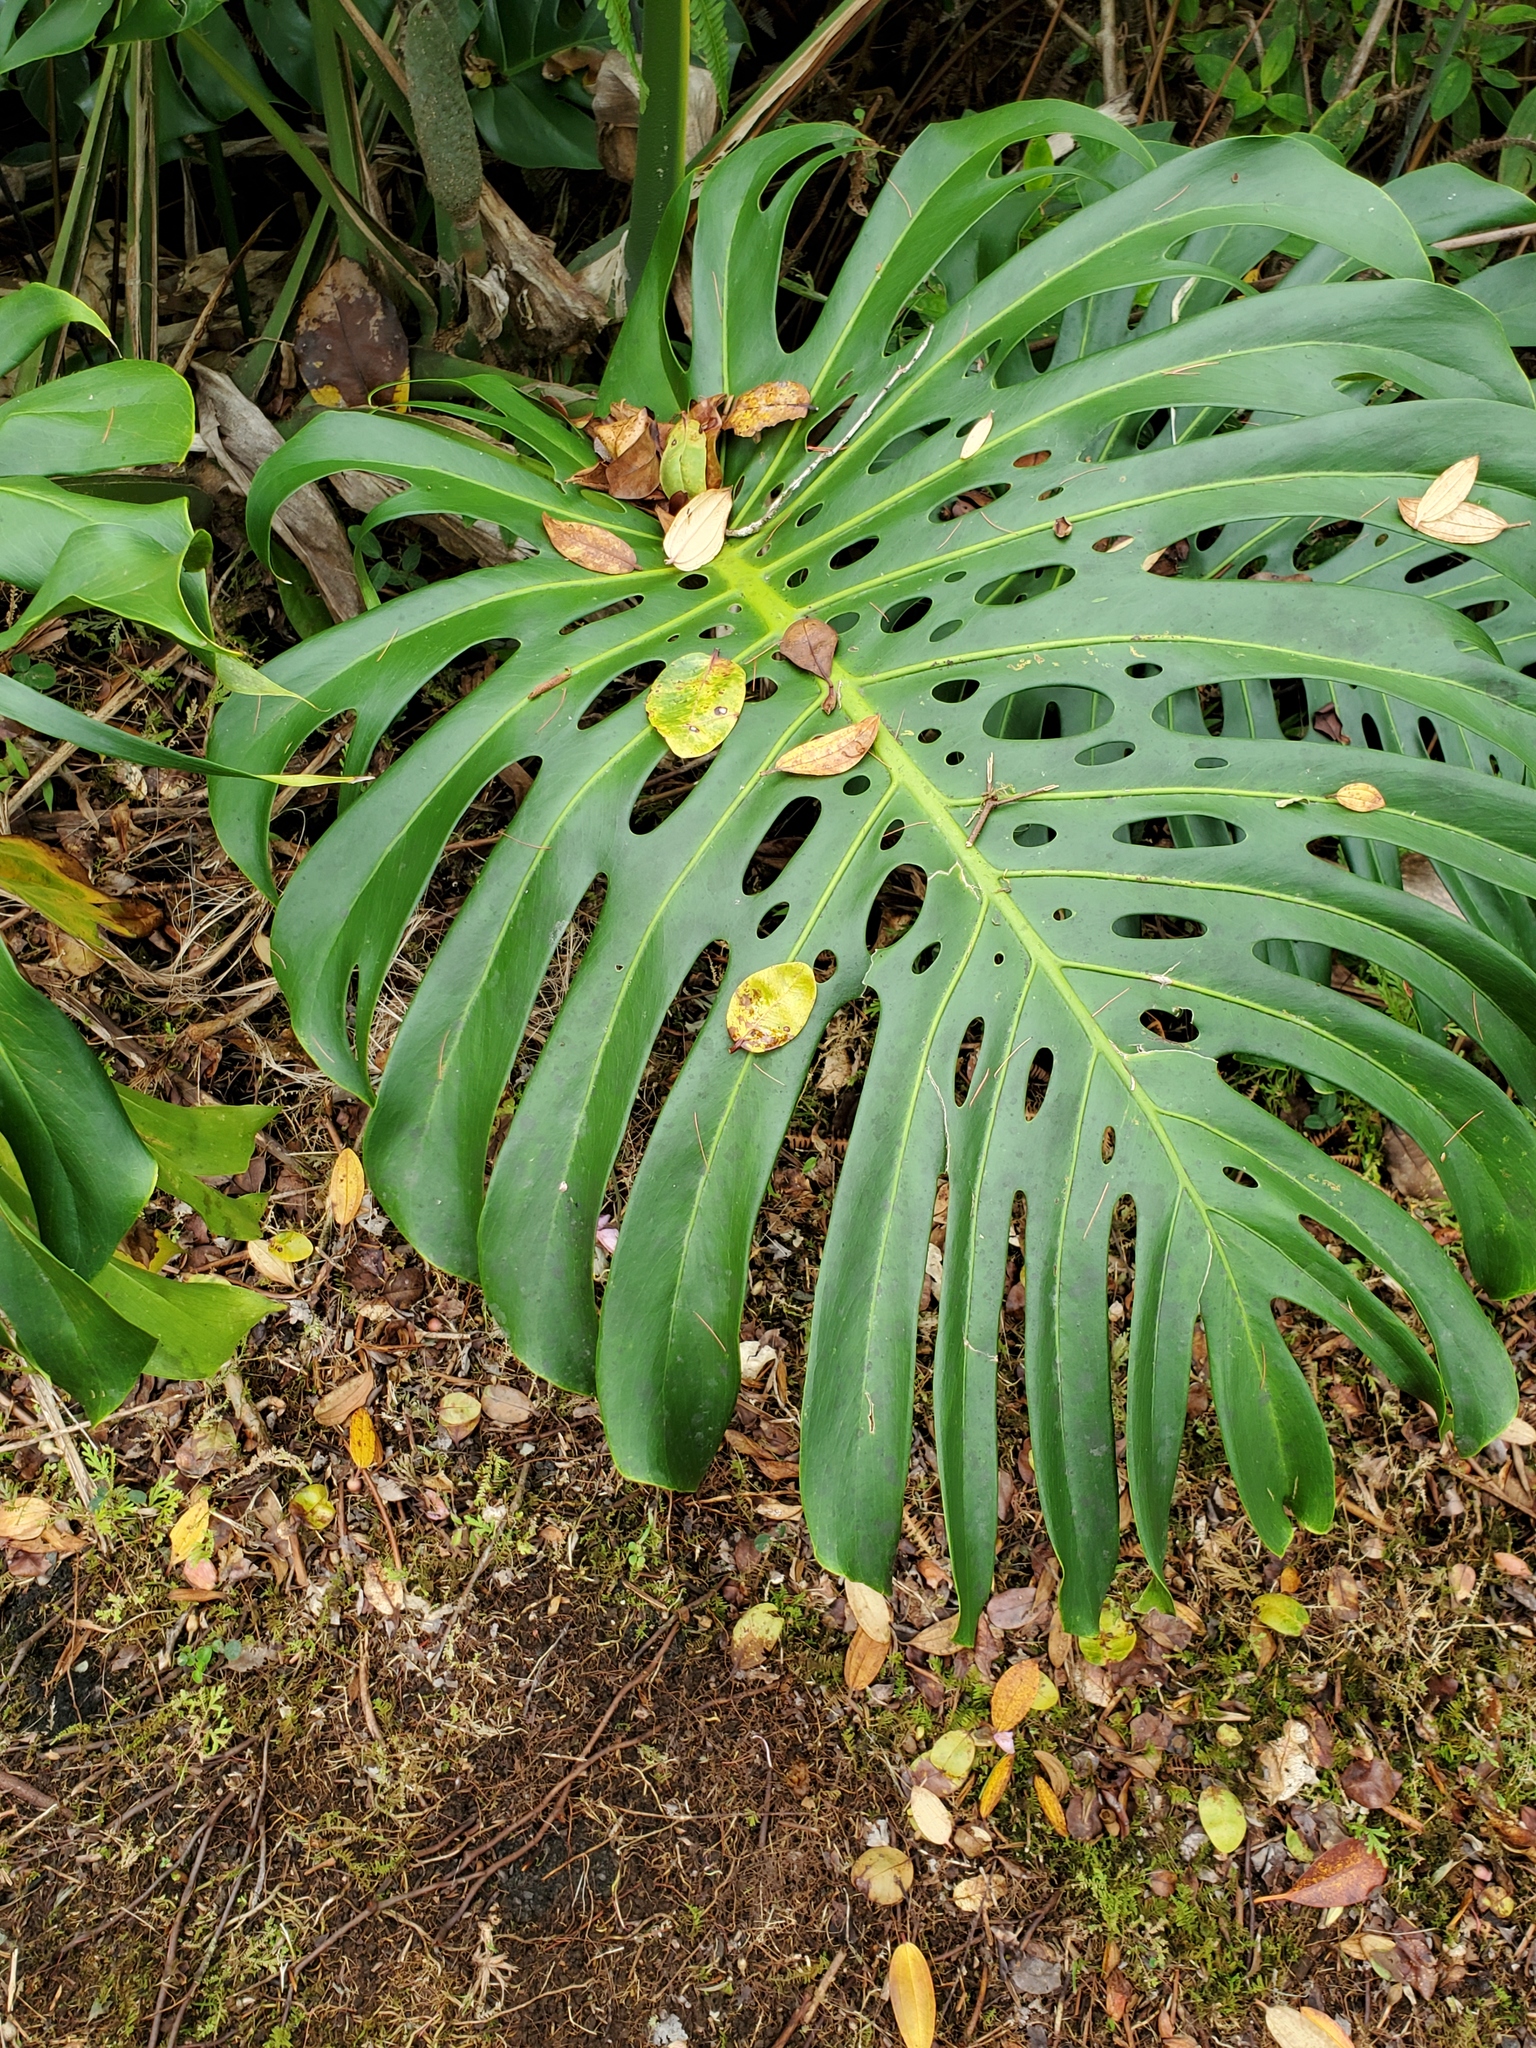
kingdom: Plantae
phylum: Tracheophyta
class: Liliopsida
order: Alismatales
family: Araceae
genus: Monstera
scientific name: Monstera deliciosa
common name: Cut-leaf-philodendron
